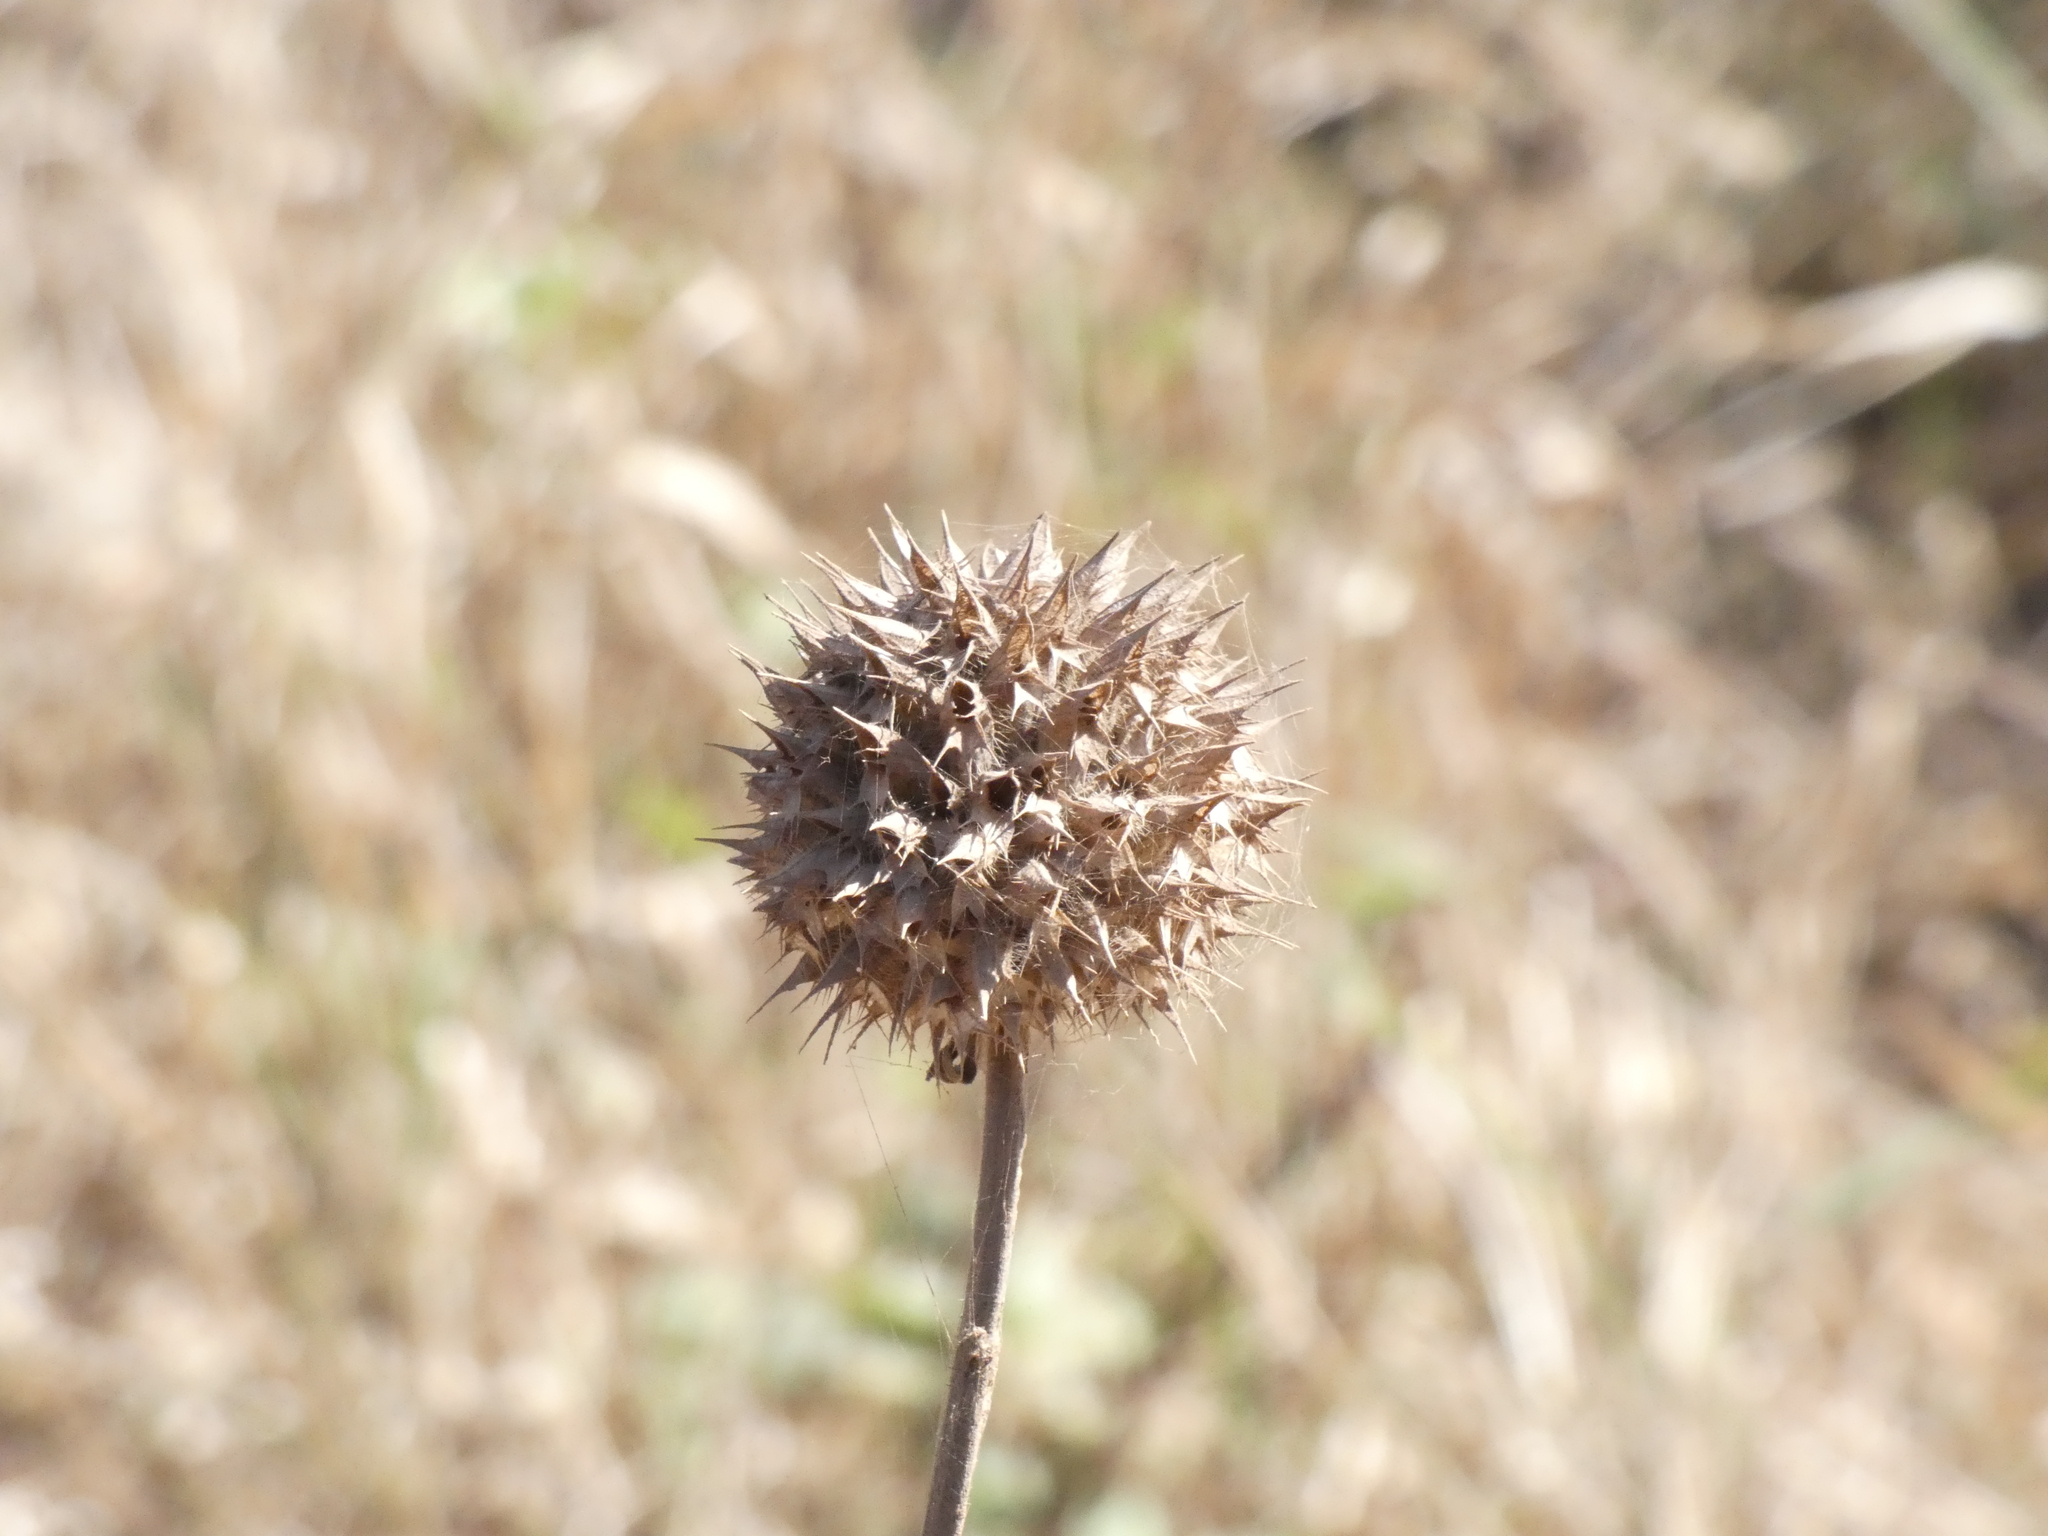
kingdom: Plantae
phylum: Tracheophyta
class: Magnoliopsida
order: Lamiales
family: Lamiaceae
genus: Leonotis
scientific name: Leonotis nepetifolia
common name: Christmas candlestick
